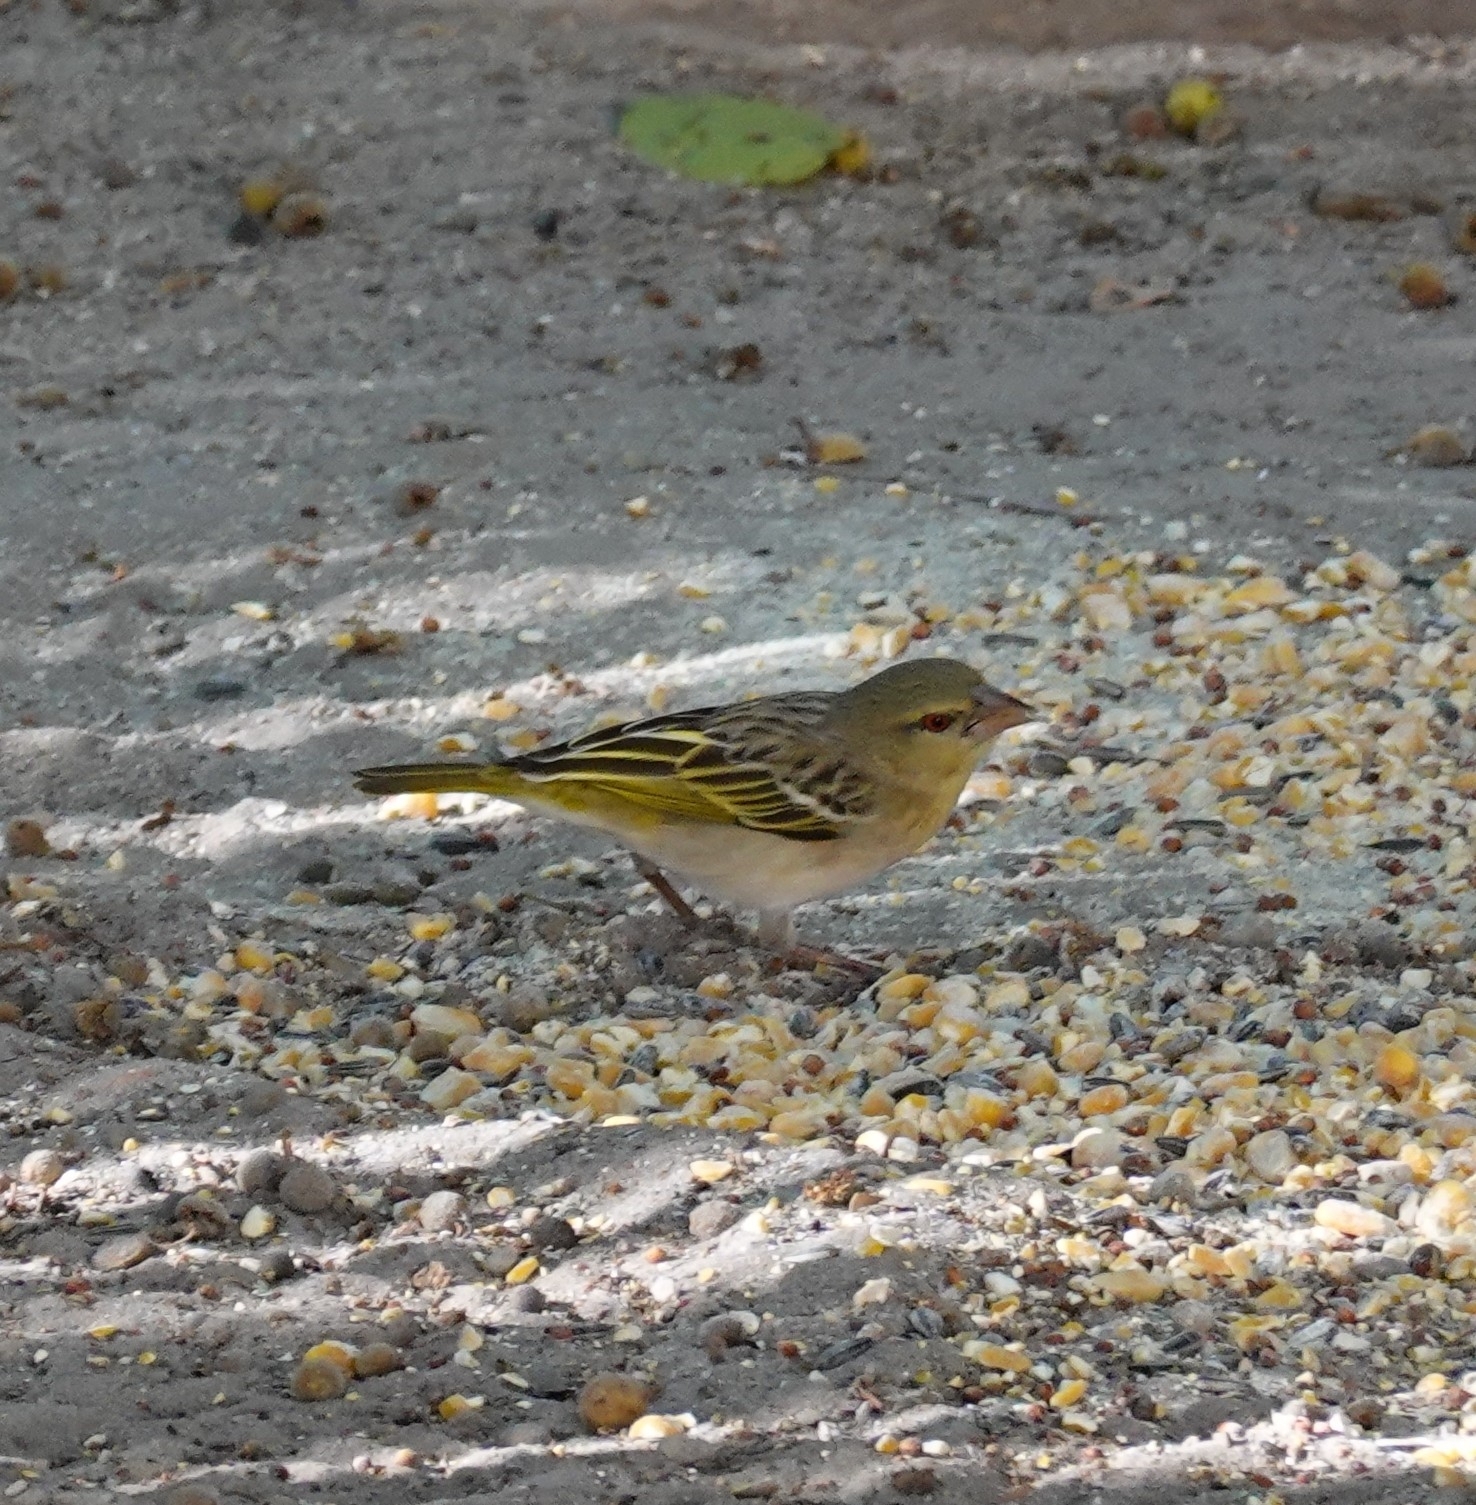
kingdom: Animalia
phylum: Chordata
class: Aves
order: Passeriformes
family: Ploceidae
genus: Ploceus
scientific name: Ploceus velatus
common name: Southern masked weaver
